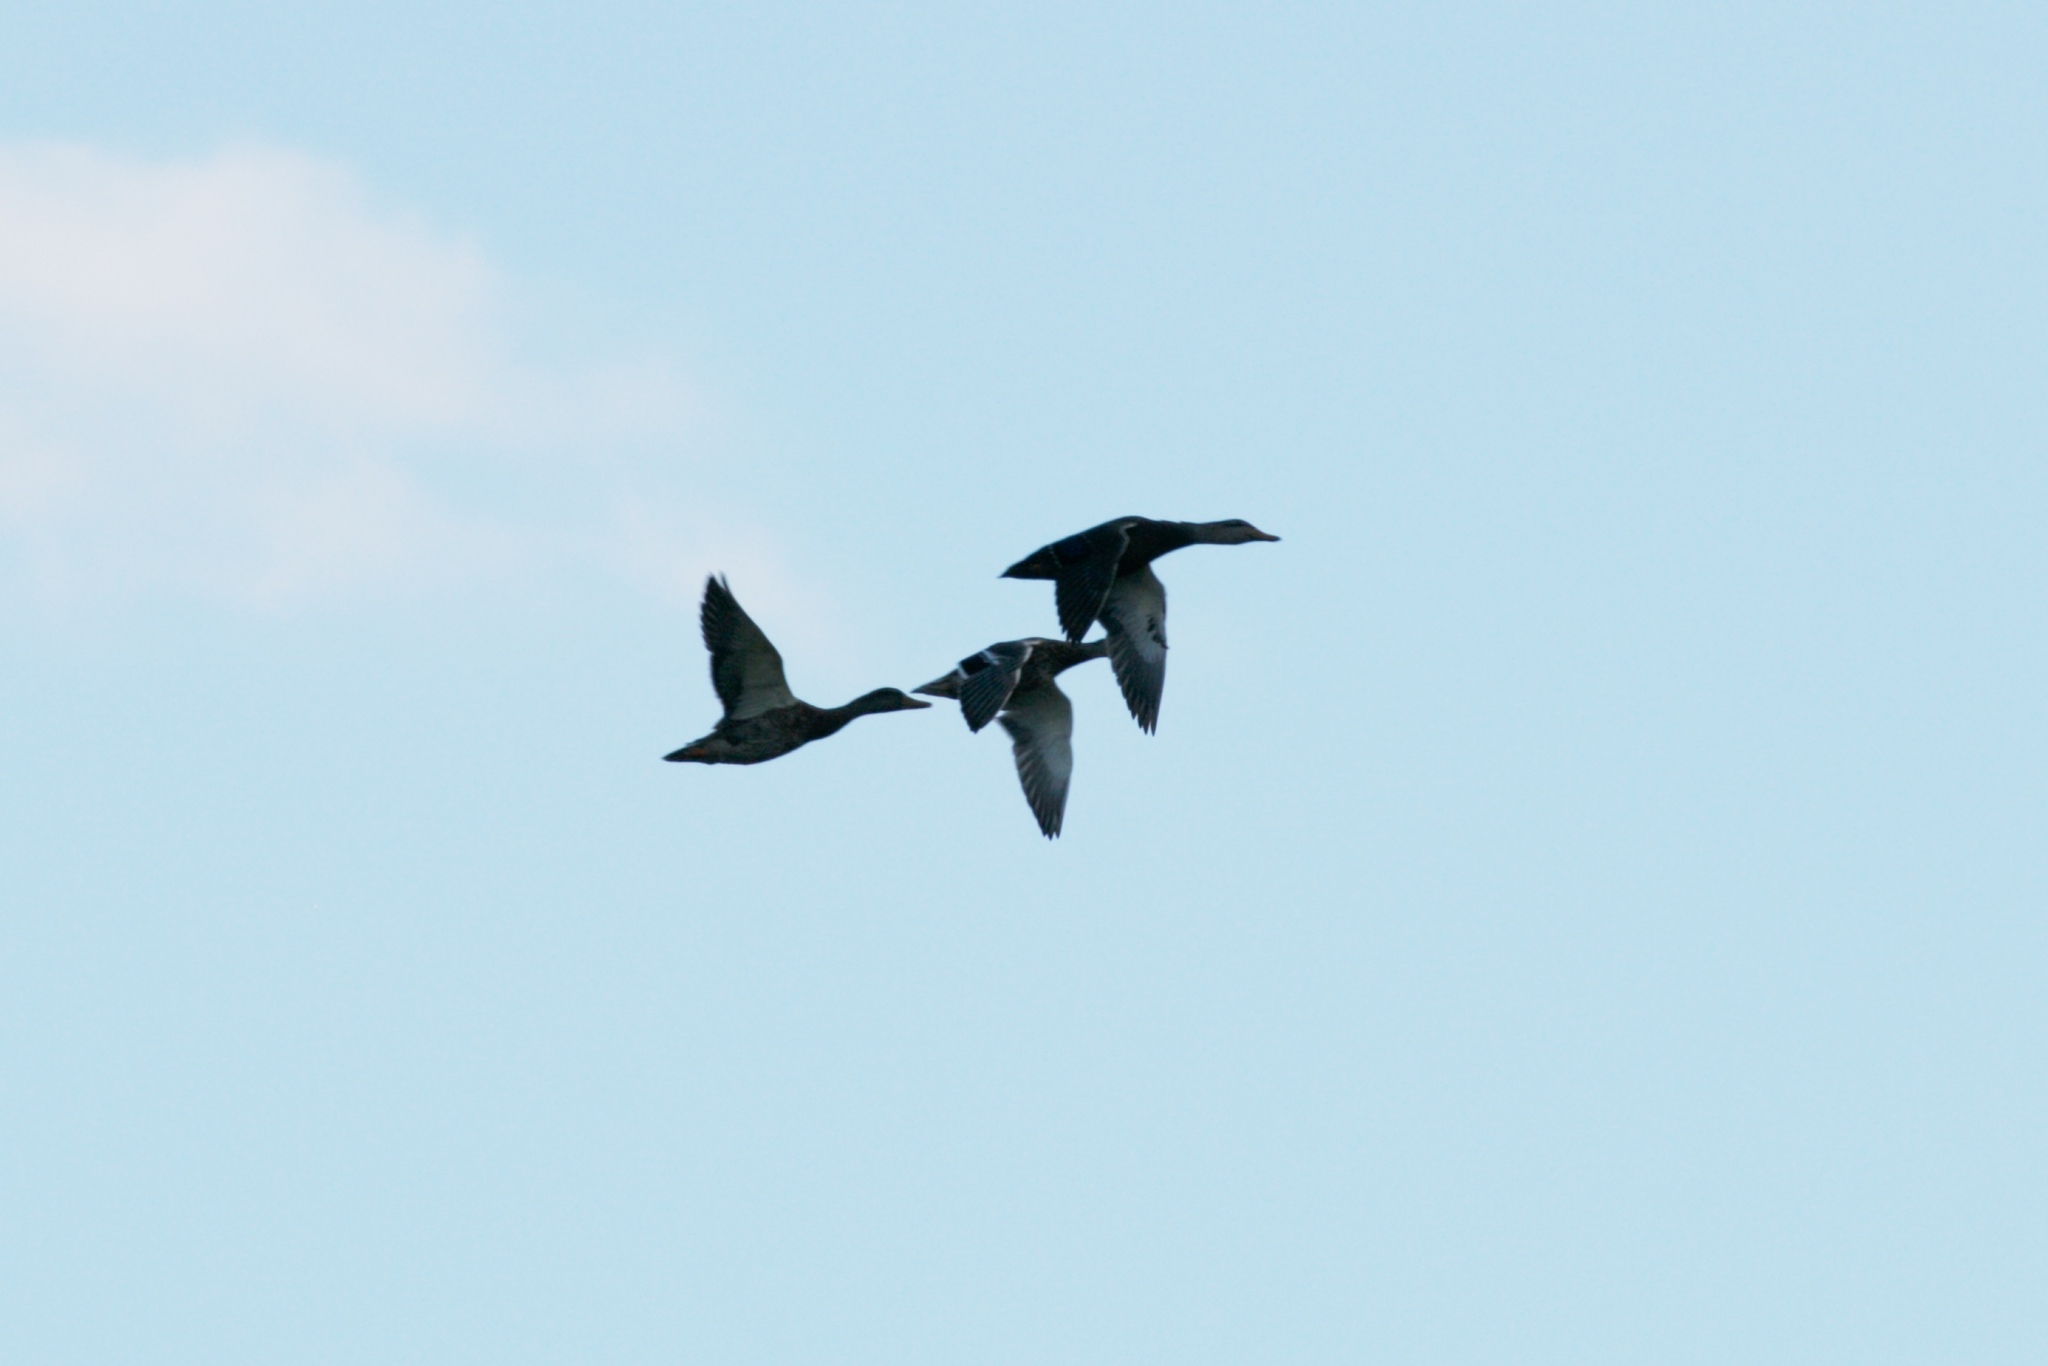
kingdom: Animalia
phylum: Chordata
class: Aves
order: Anseriformes
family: Anatidae
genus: Anas
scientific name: Anas rubripes
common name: American black duck
